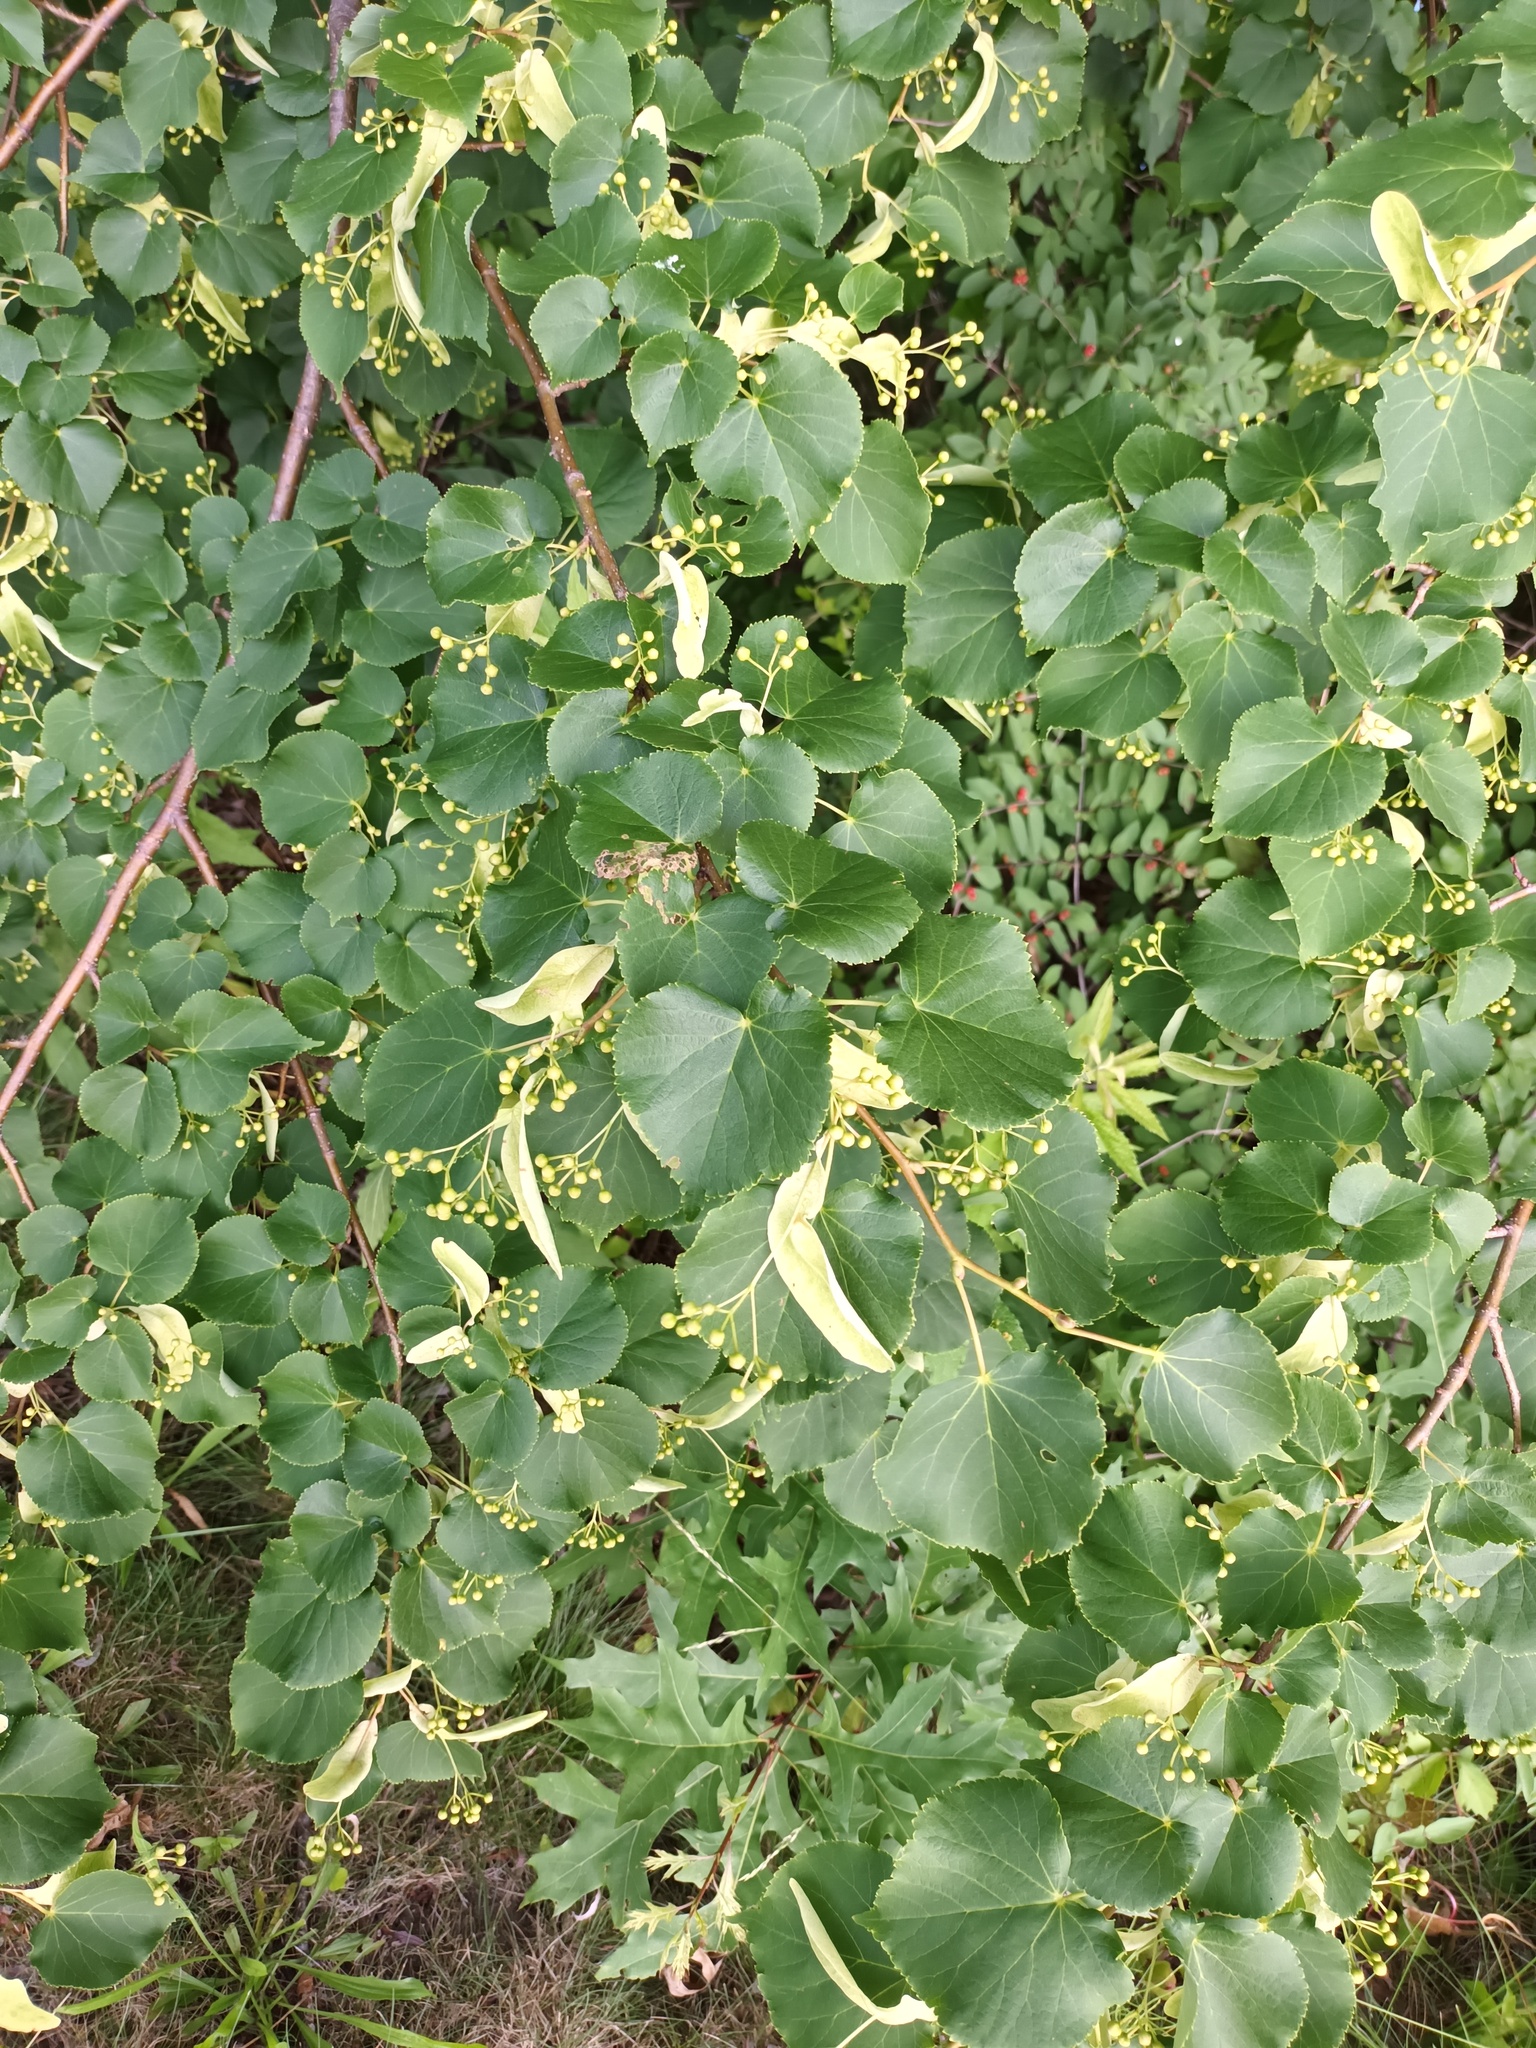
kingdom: Plantae
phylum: Tracheophyta
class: Magnoliopsida
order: Malvales
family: Malvaceae
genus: Tilia
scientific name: Tilia cordata
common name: Small-leaved lime
